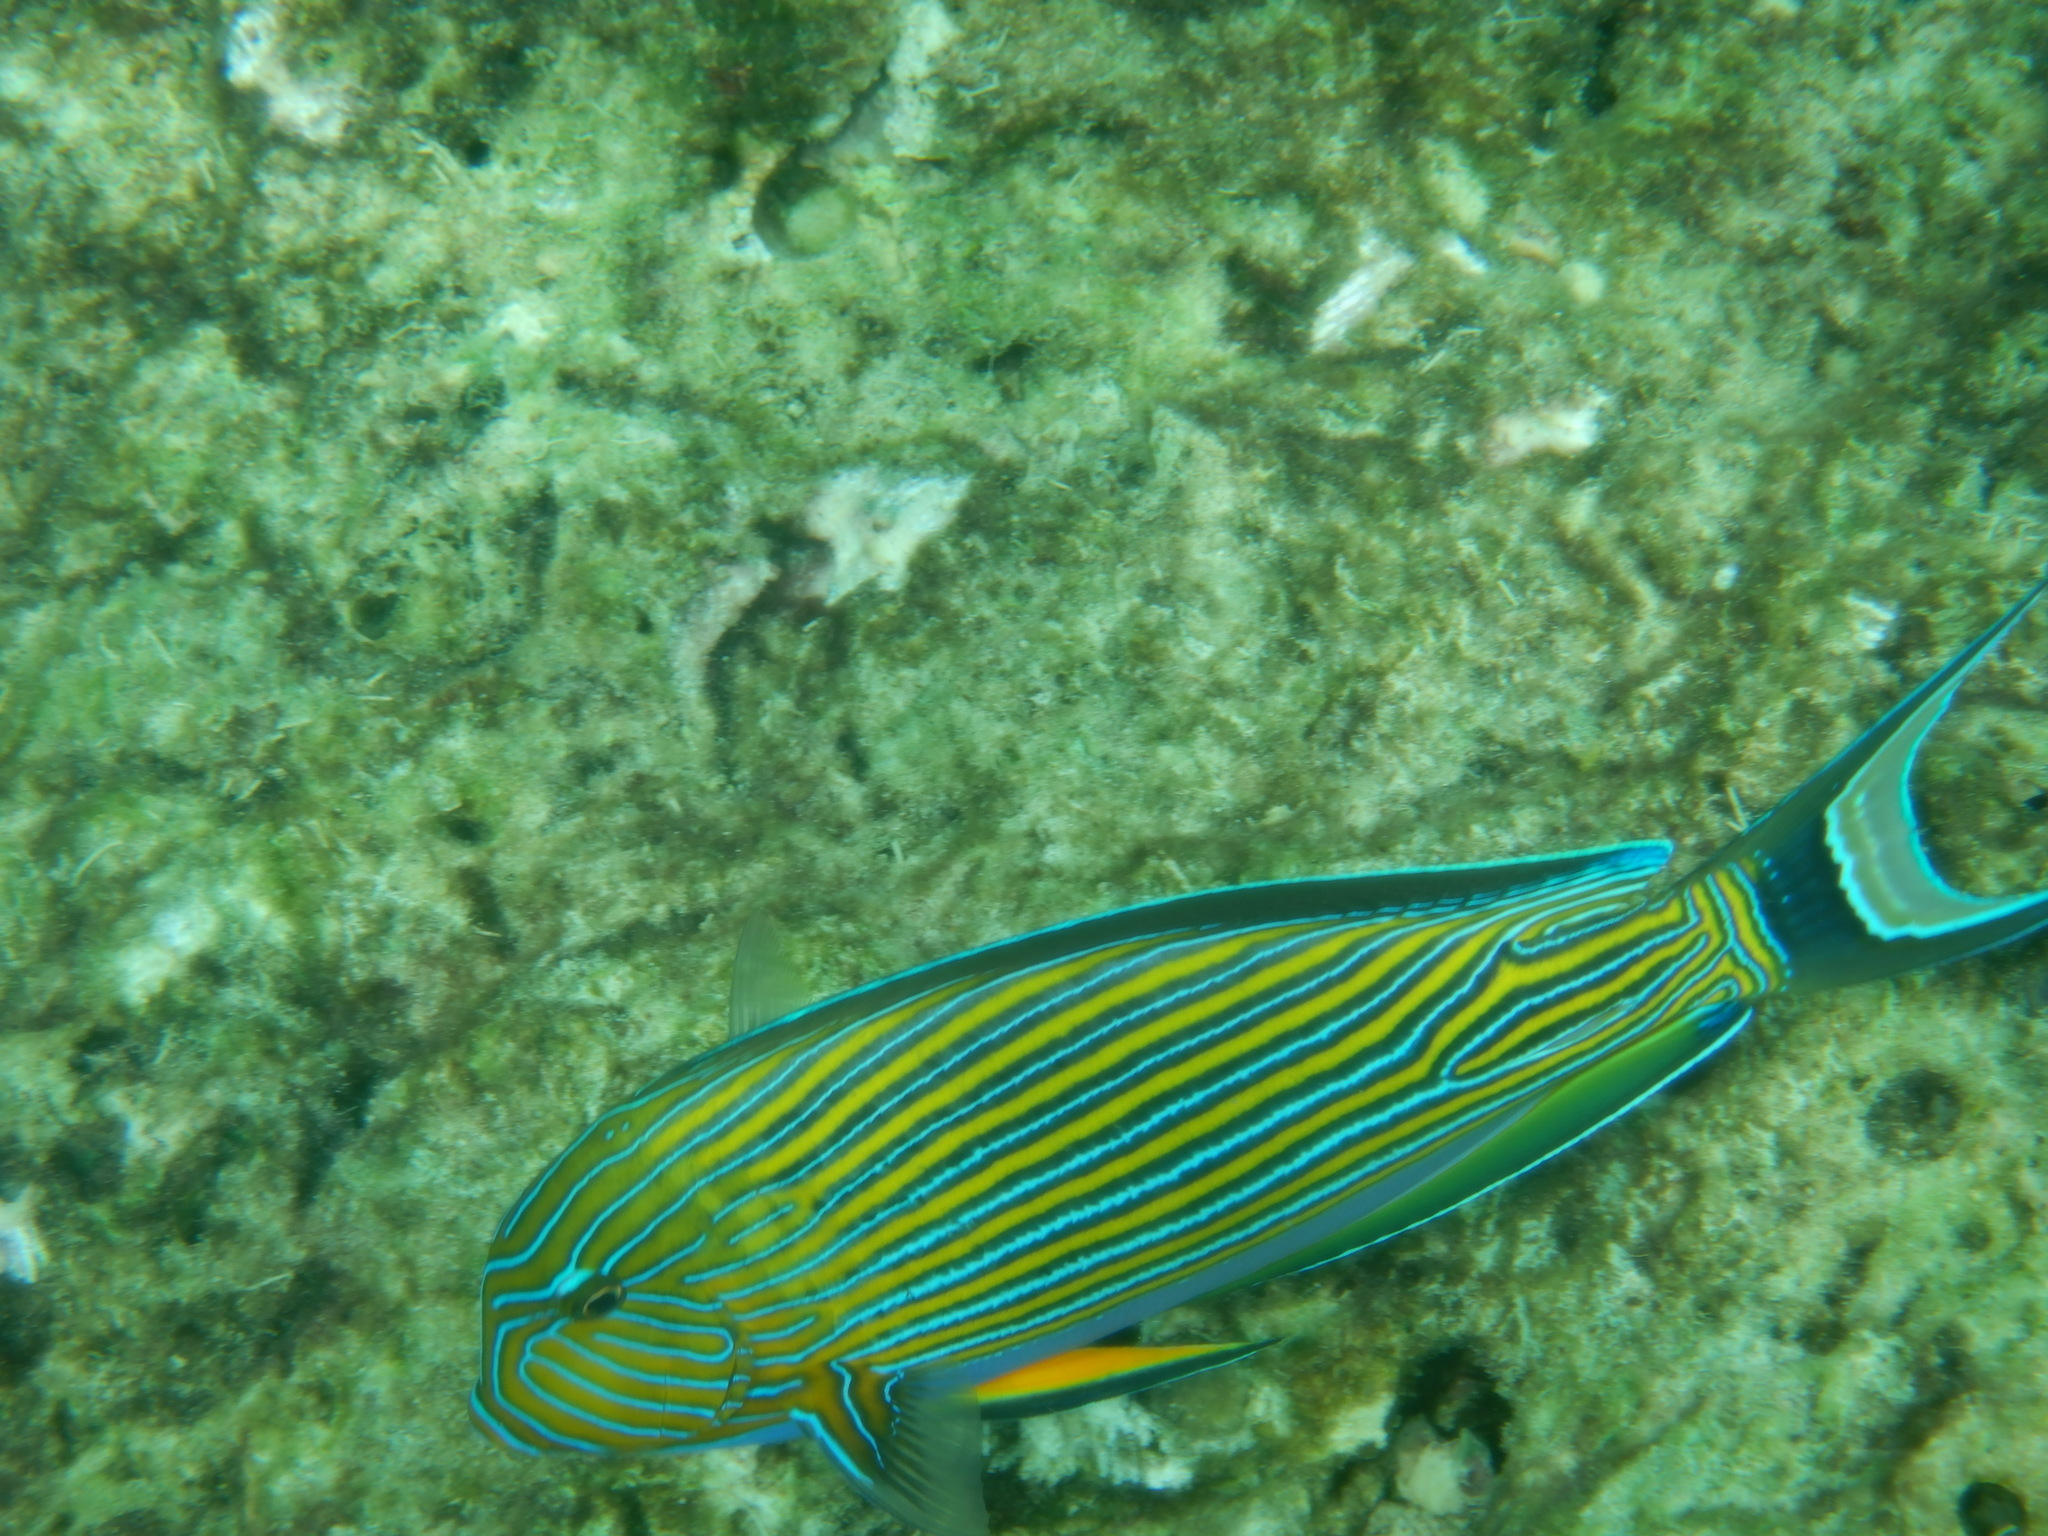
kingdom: Animalia
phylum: Chordata
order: Perciformes
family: Acanthuridae
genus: Acanthurus
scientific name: Acanthurus lineatus
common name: Striped surgeonfish
